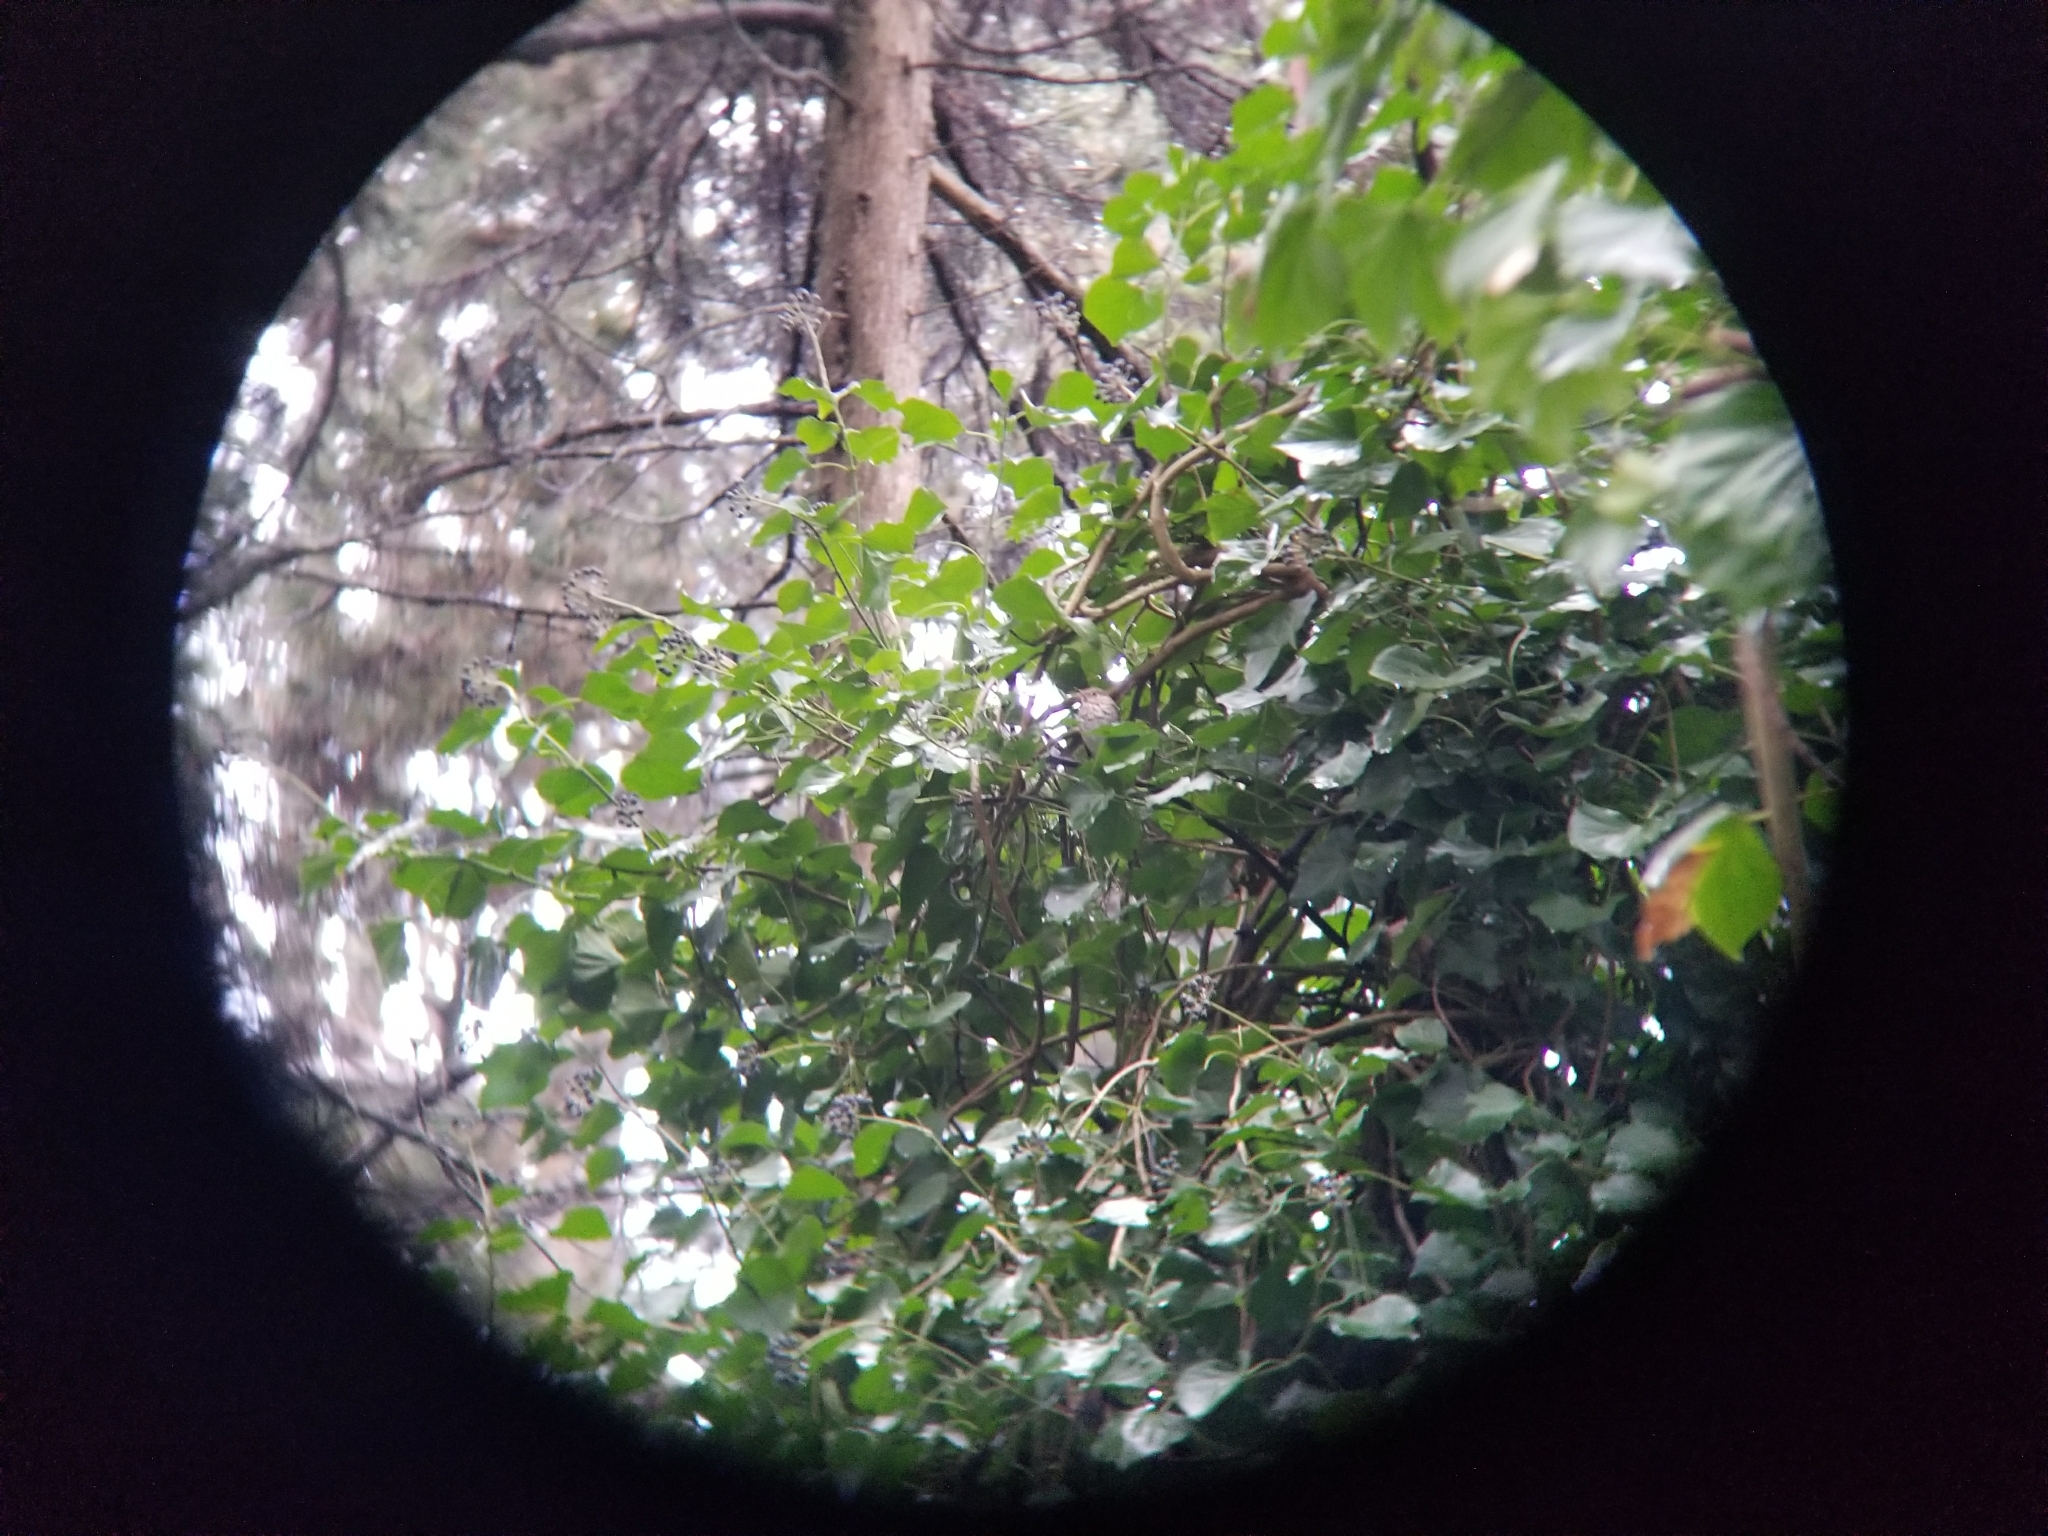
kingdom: Animalia
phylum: Chordata
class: Aves
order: Passeriformes
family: Turdidae
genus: Catharus
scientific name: Catharus guttatus
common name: Hermit thrush
